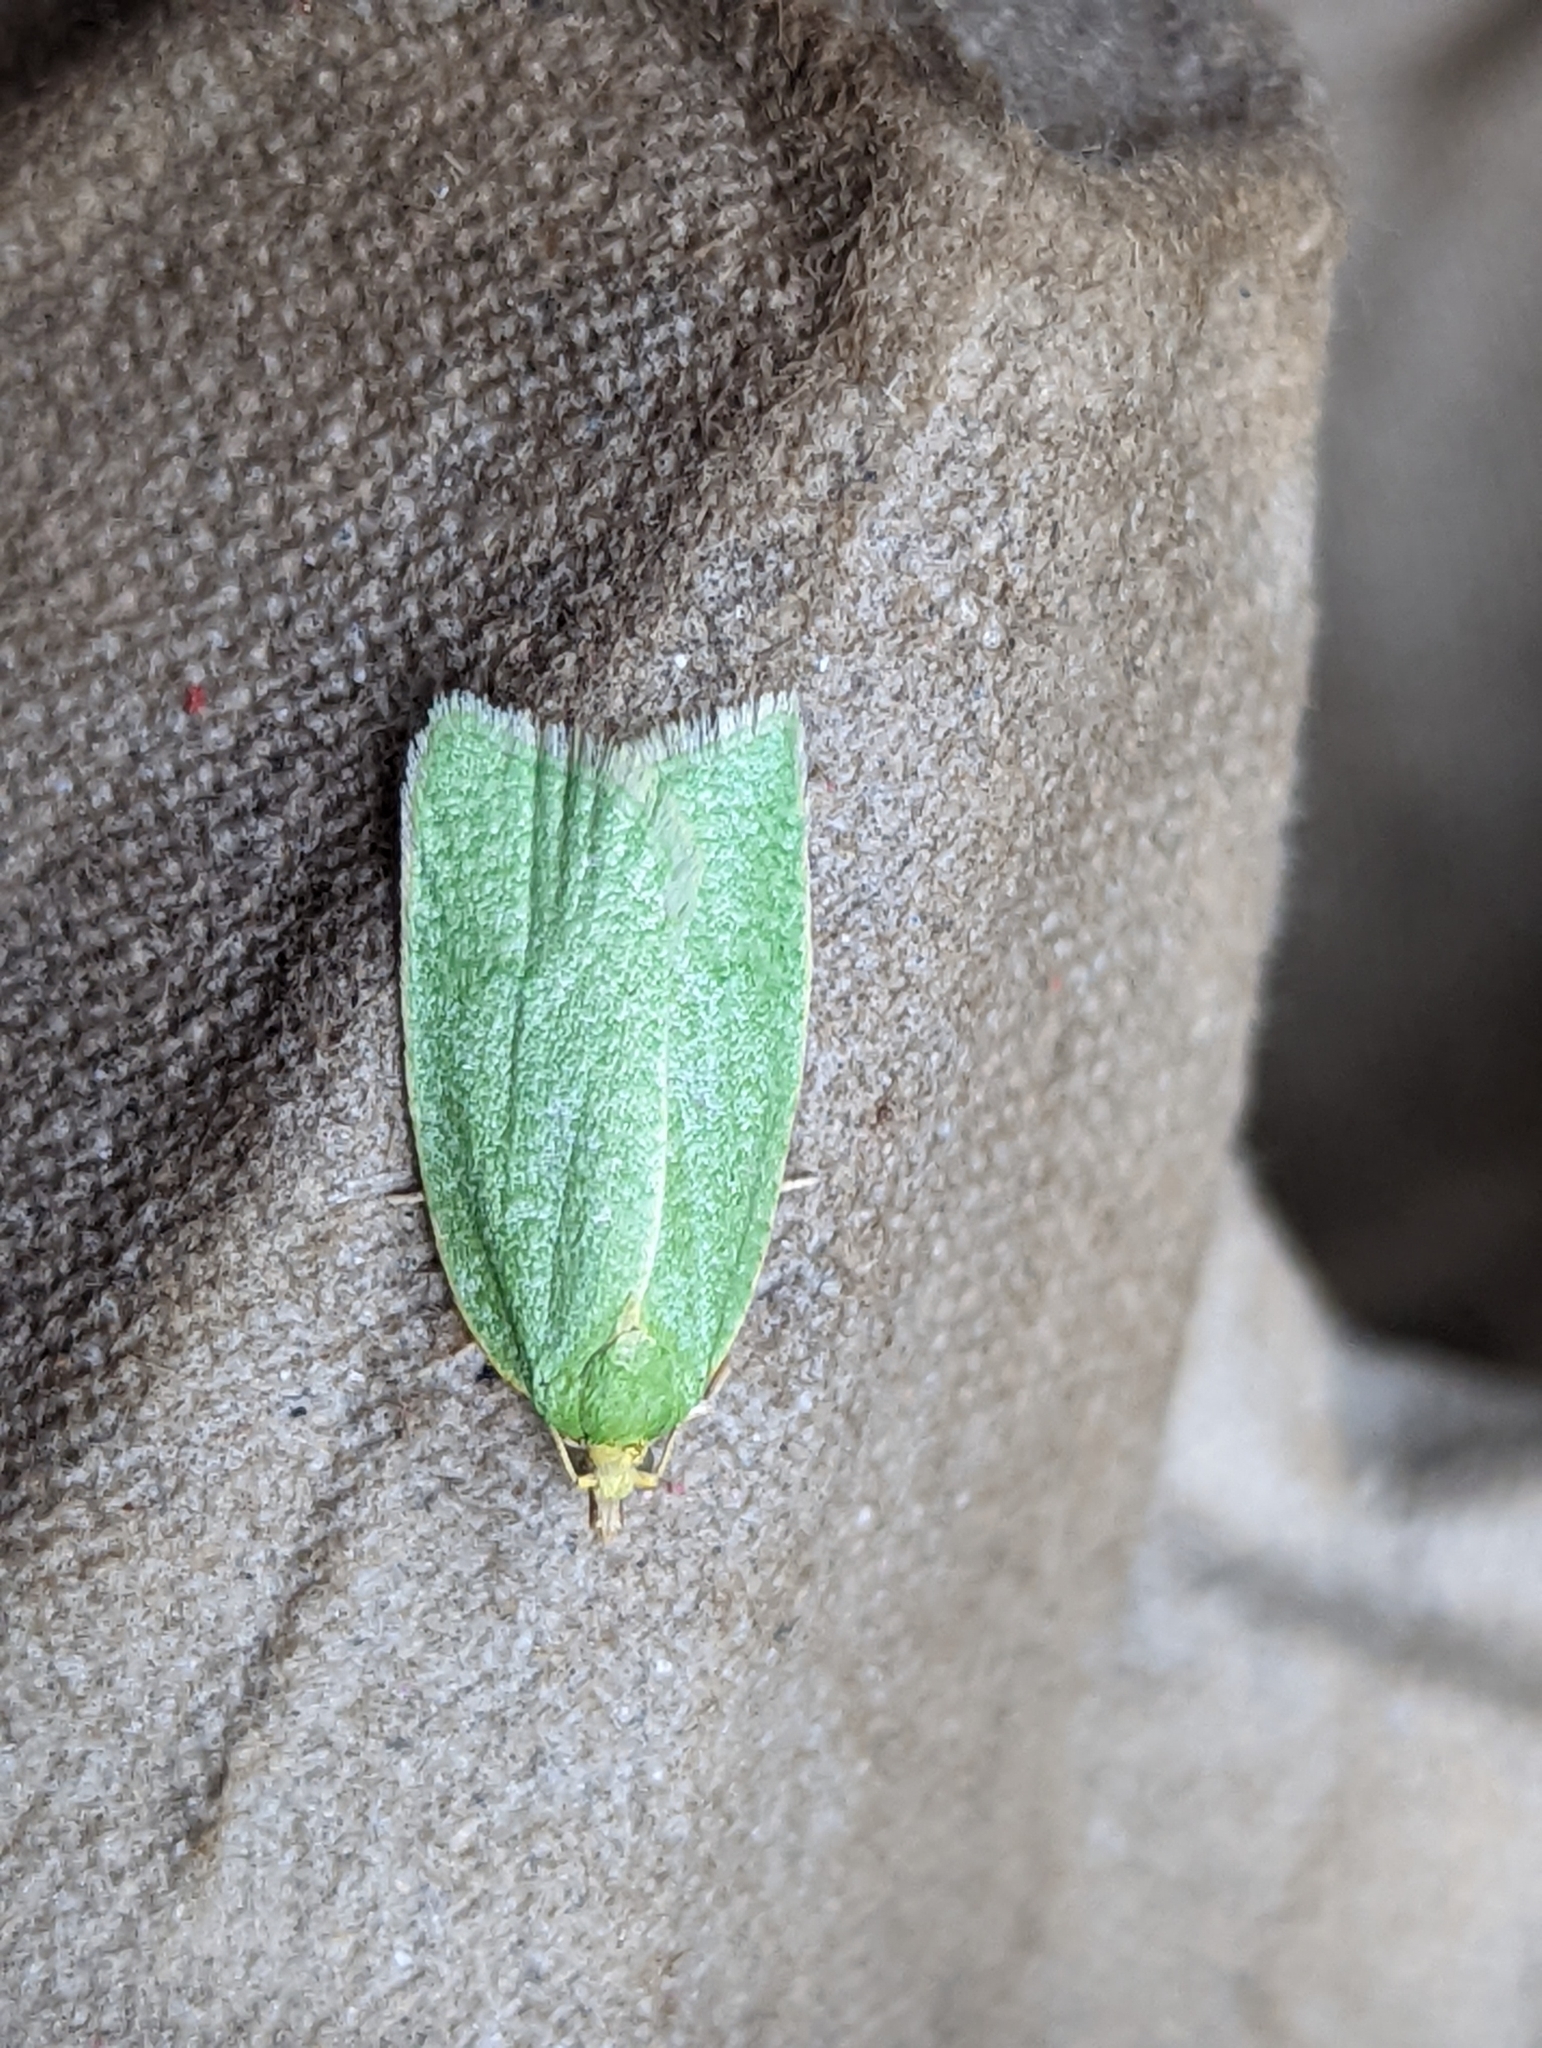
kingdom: Animalia
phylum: Arthropoda
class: Insecta
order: Lepidoptera
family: Tortricidae
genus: Tortrix
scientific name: Tortrix viridana
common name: Green oak tortrix
